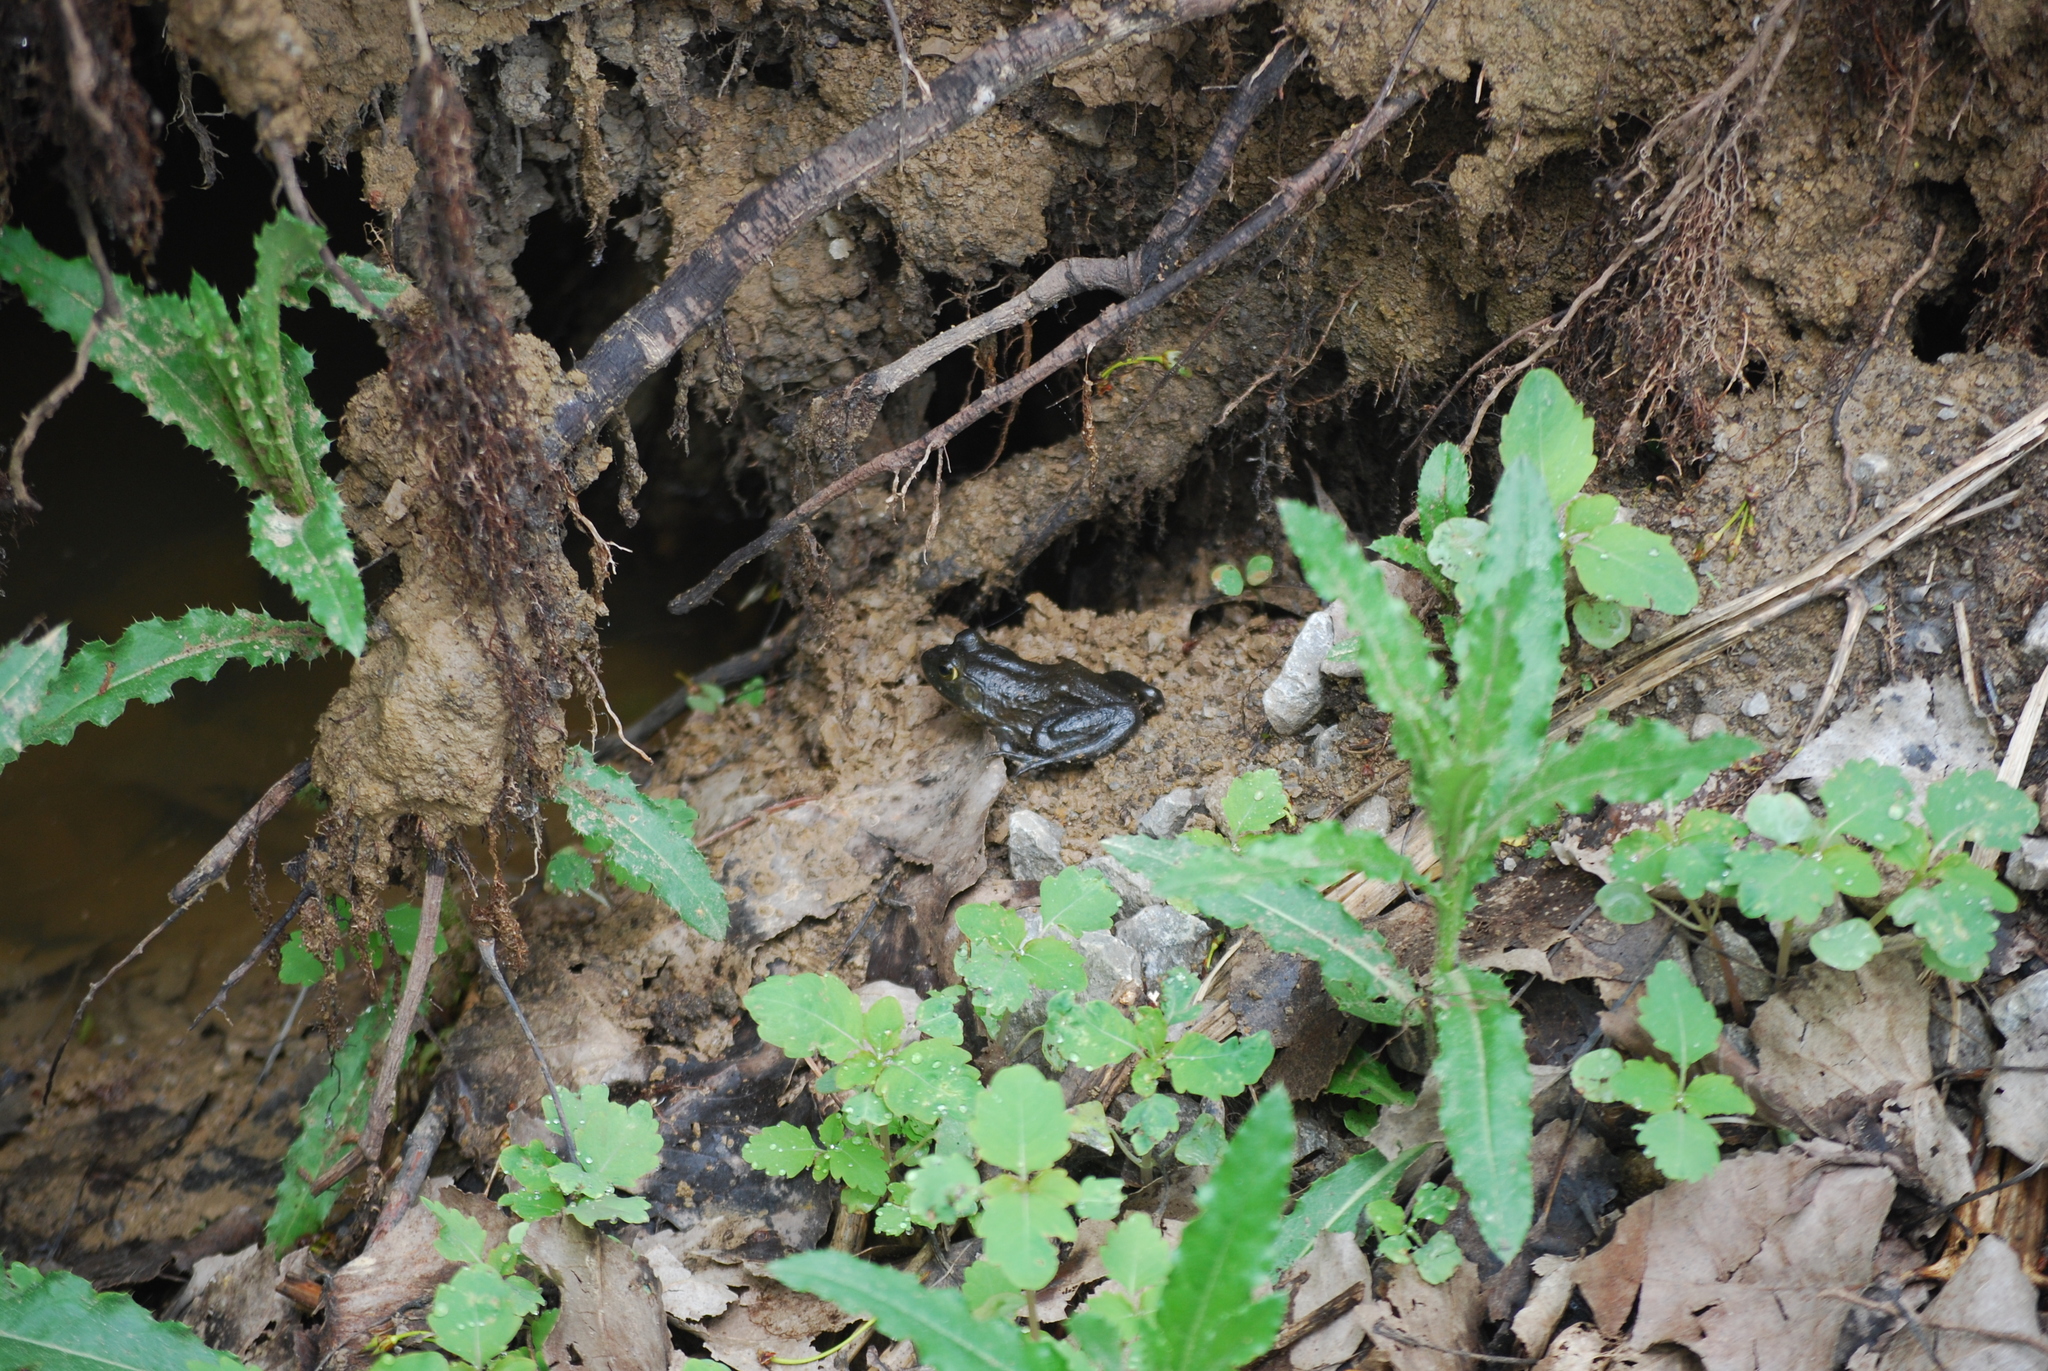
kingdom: Animalia
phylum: Chordata
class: Amphibia
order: Anura
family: Ranidae
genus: Lithobates
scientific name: Lithobates catesbeianus
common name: American bullfrog
